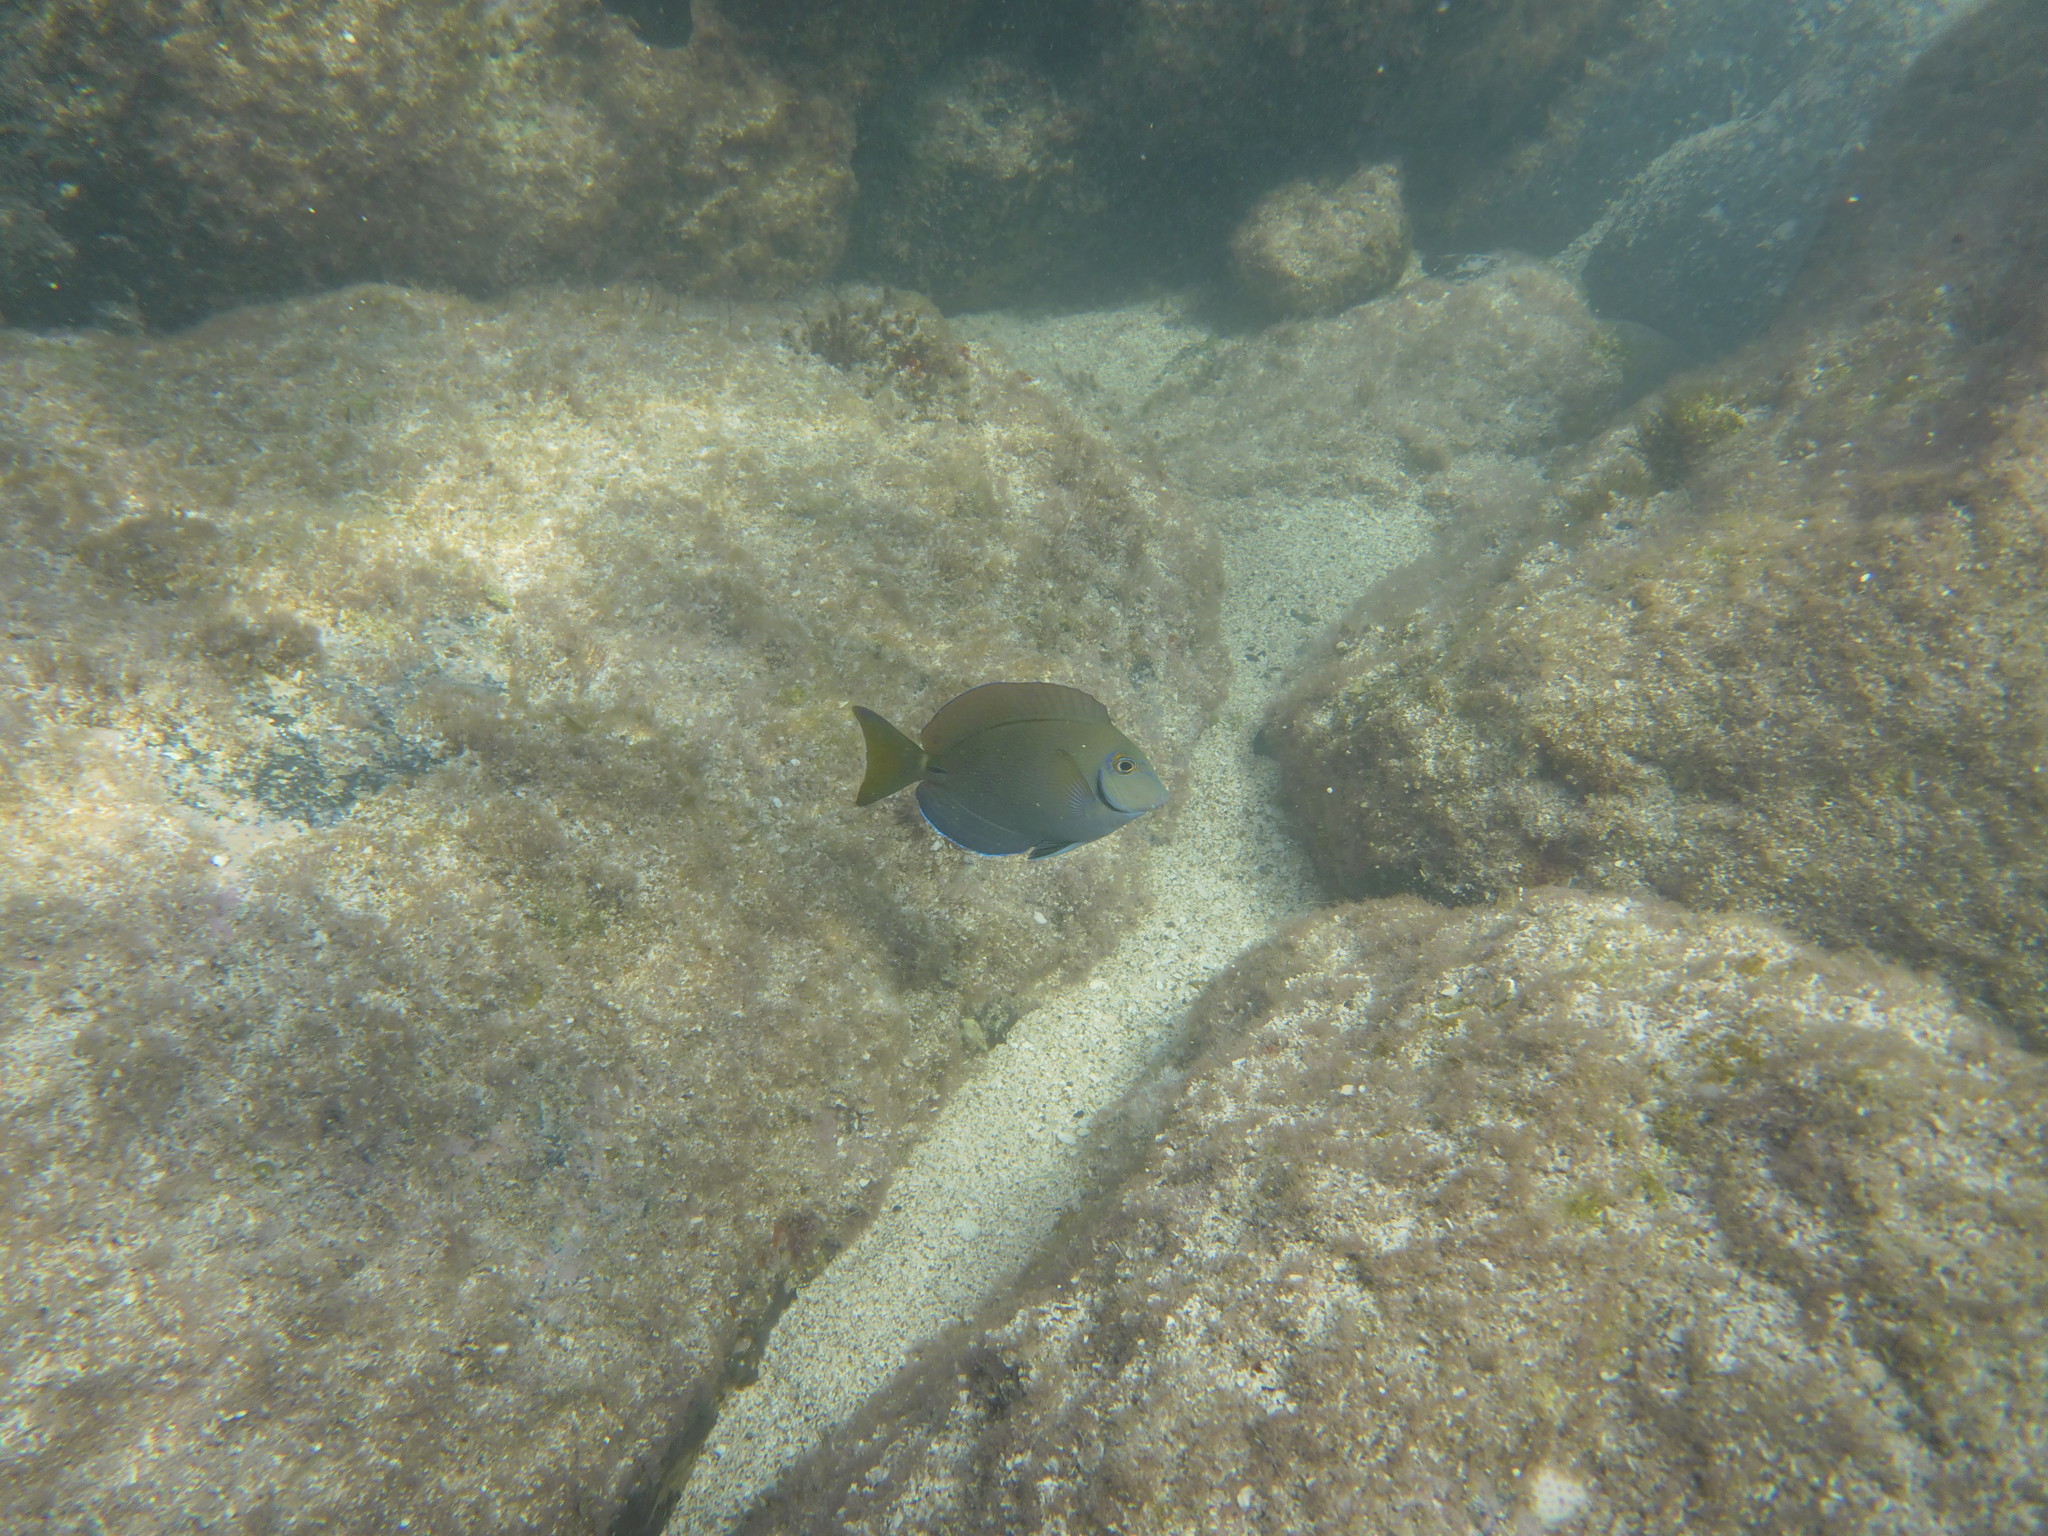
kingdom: Animalia
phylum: Chordata
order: Perciformes
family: Acanthuridae
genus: Acanthurus
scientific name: Acanthurus bahianus
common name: Ocean surgeon
